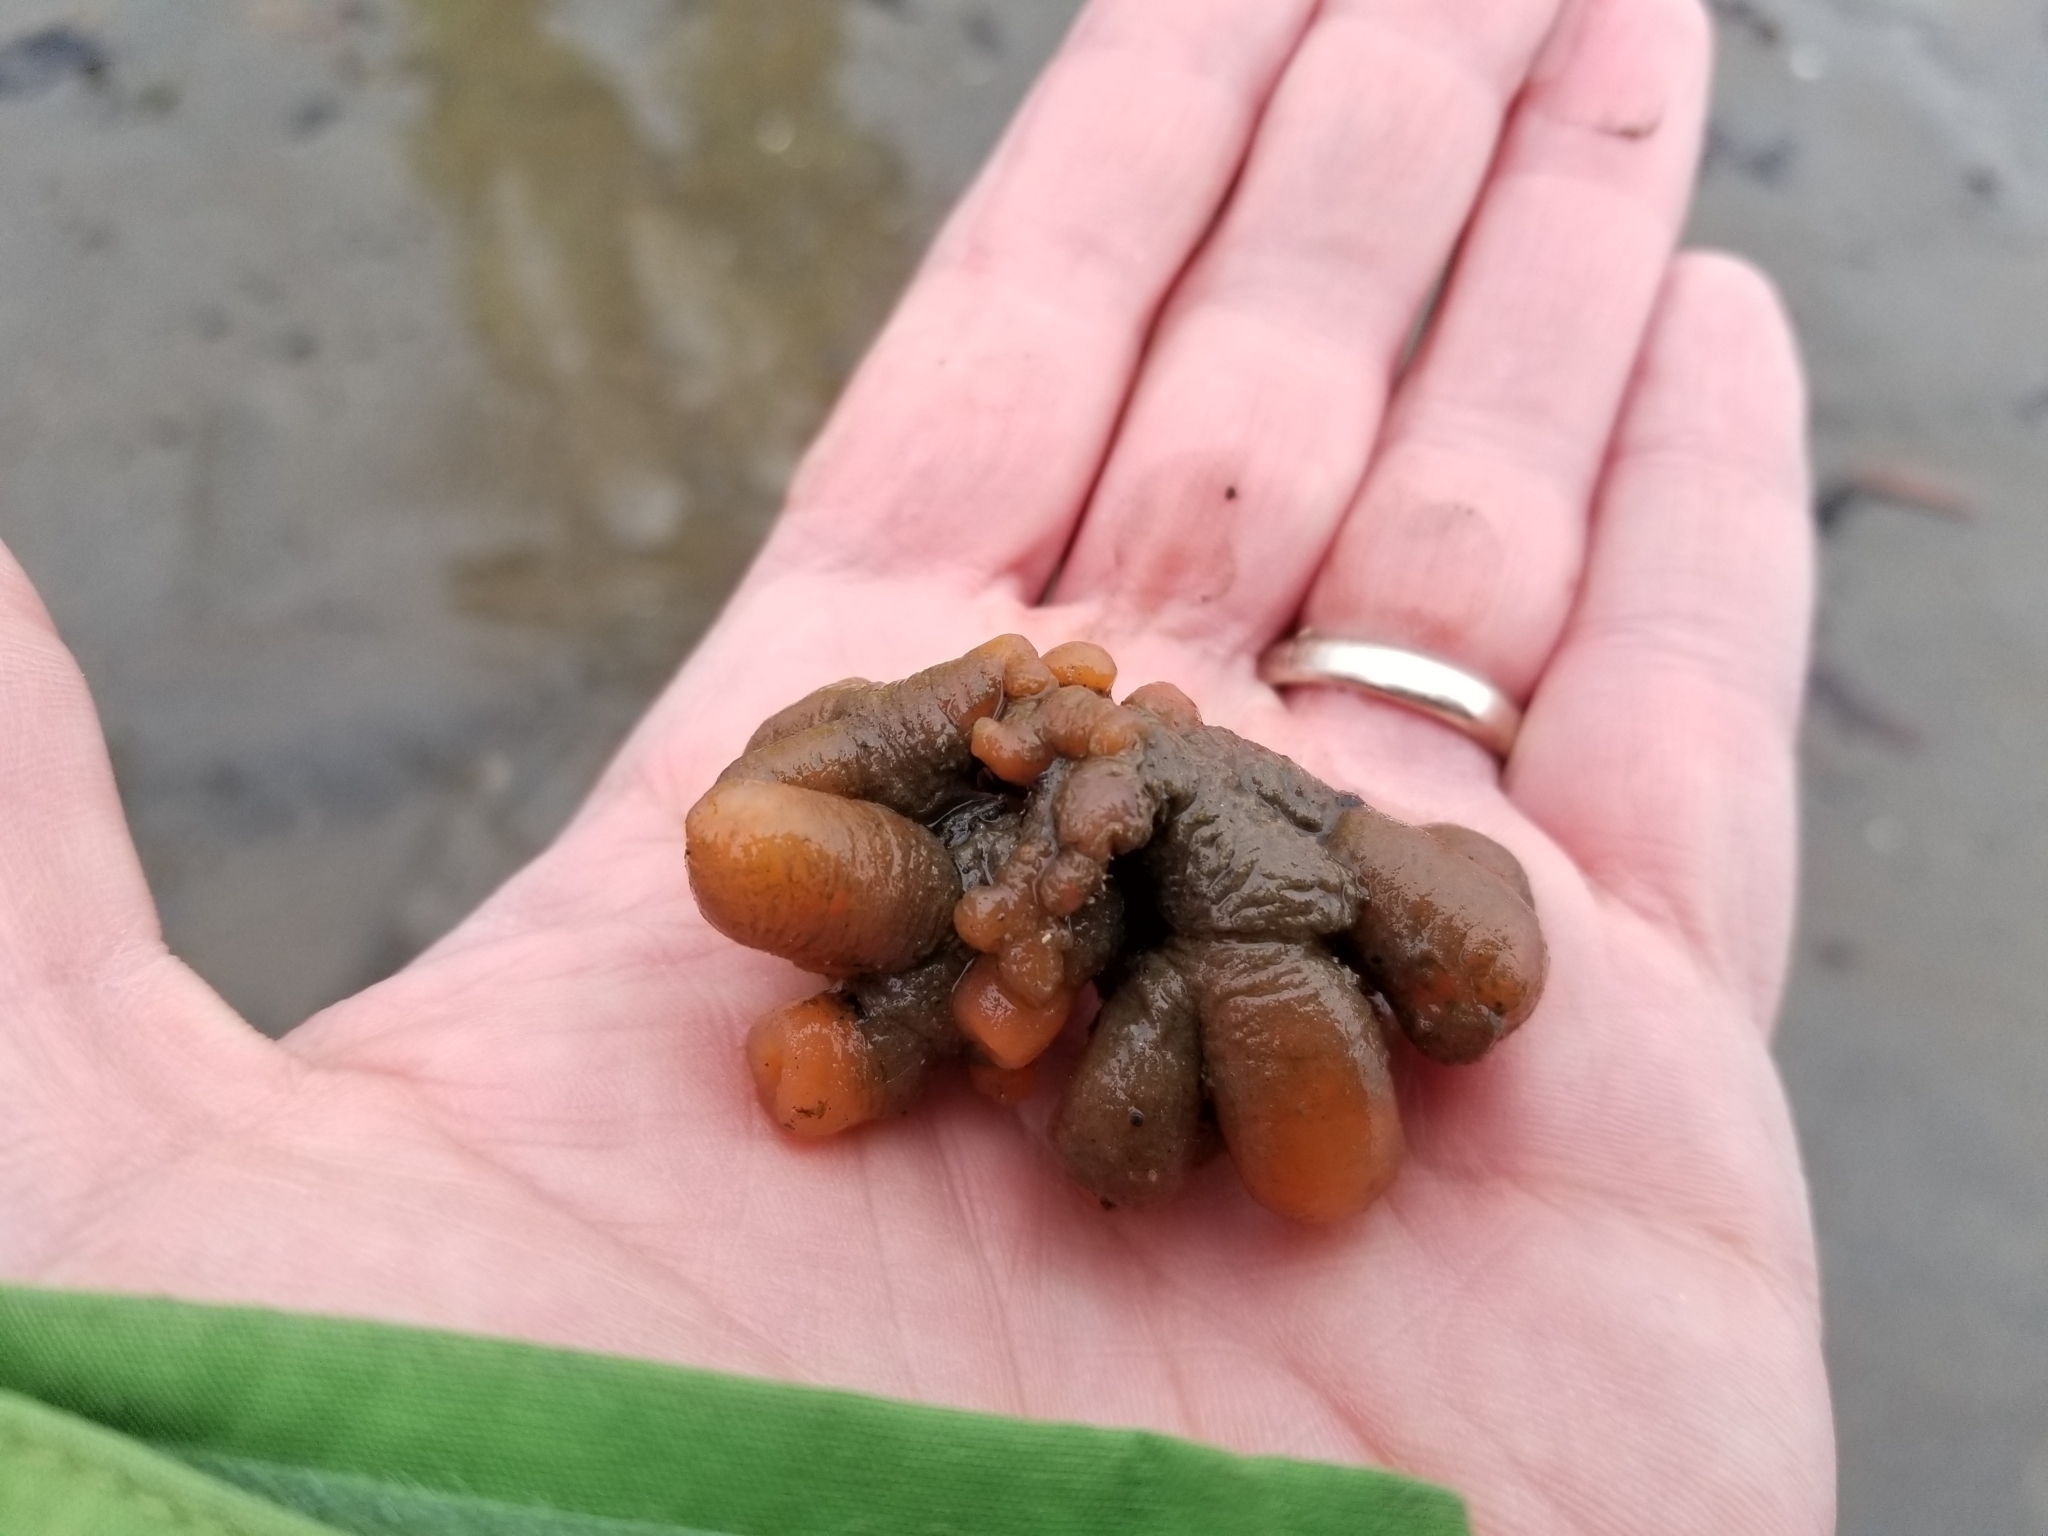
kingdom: Animalia
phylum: Chordata
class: Ascidiacea
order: Aplousobranchia
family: Polyclinidae
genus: Aplidium
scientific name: Aplidium coei
